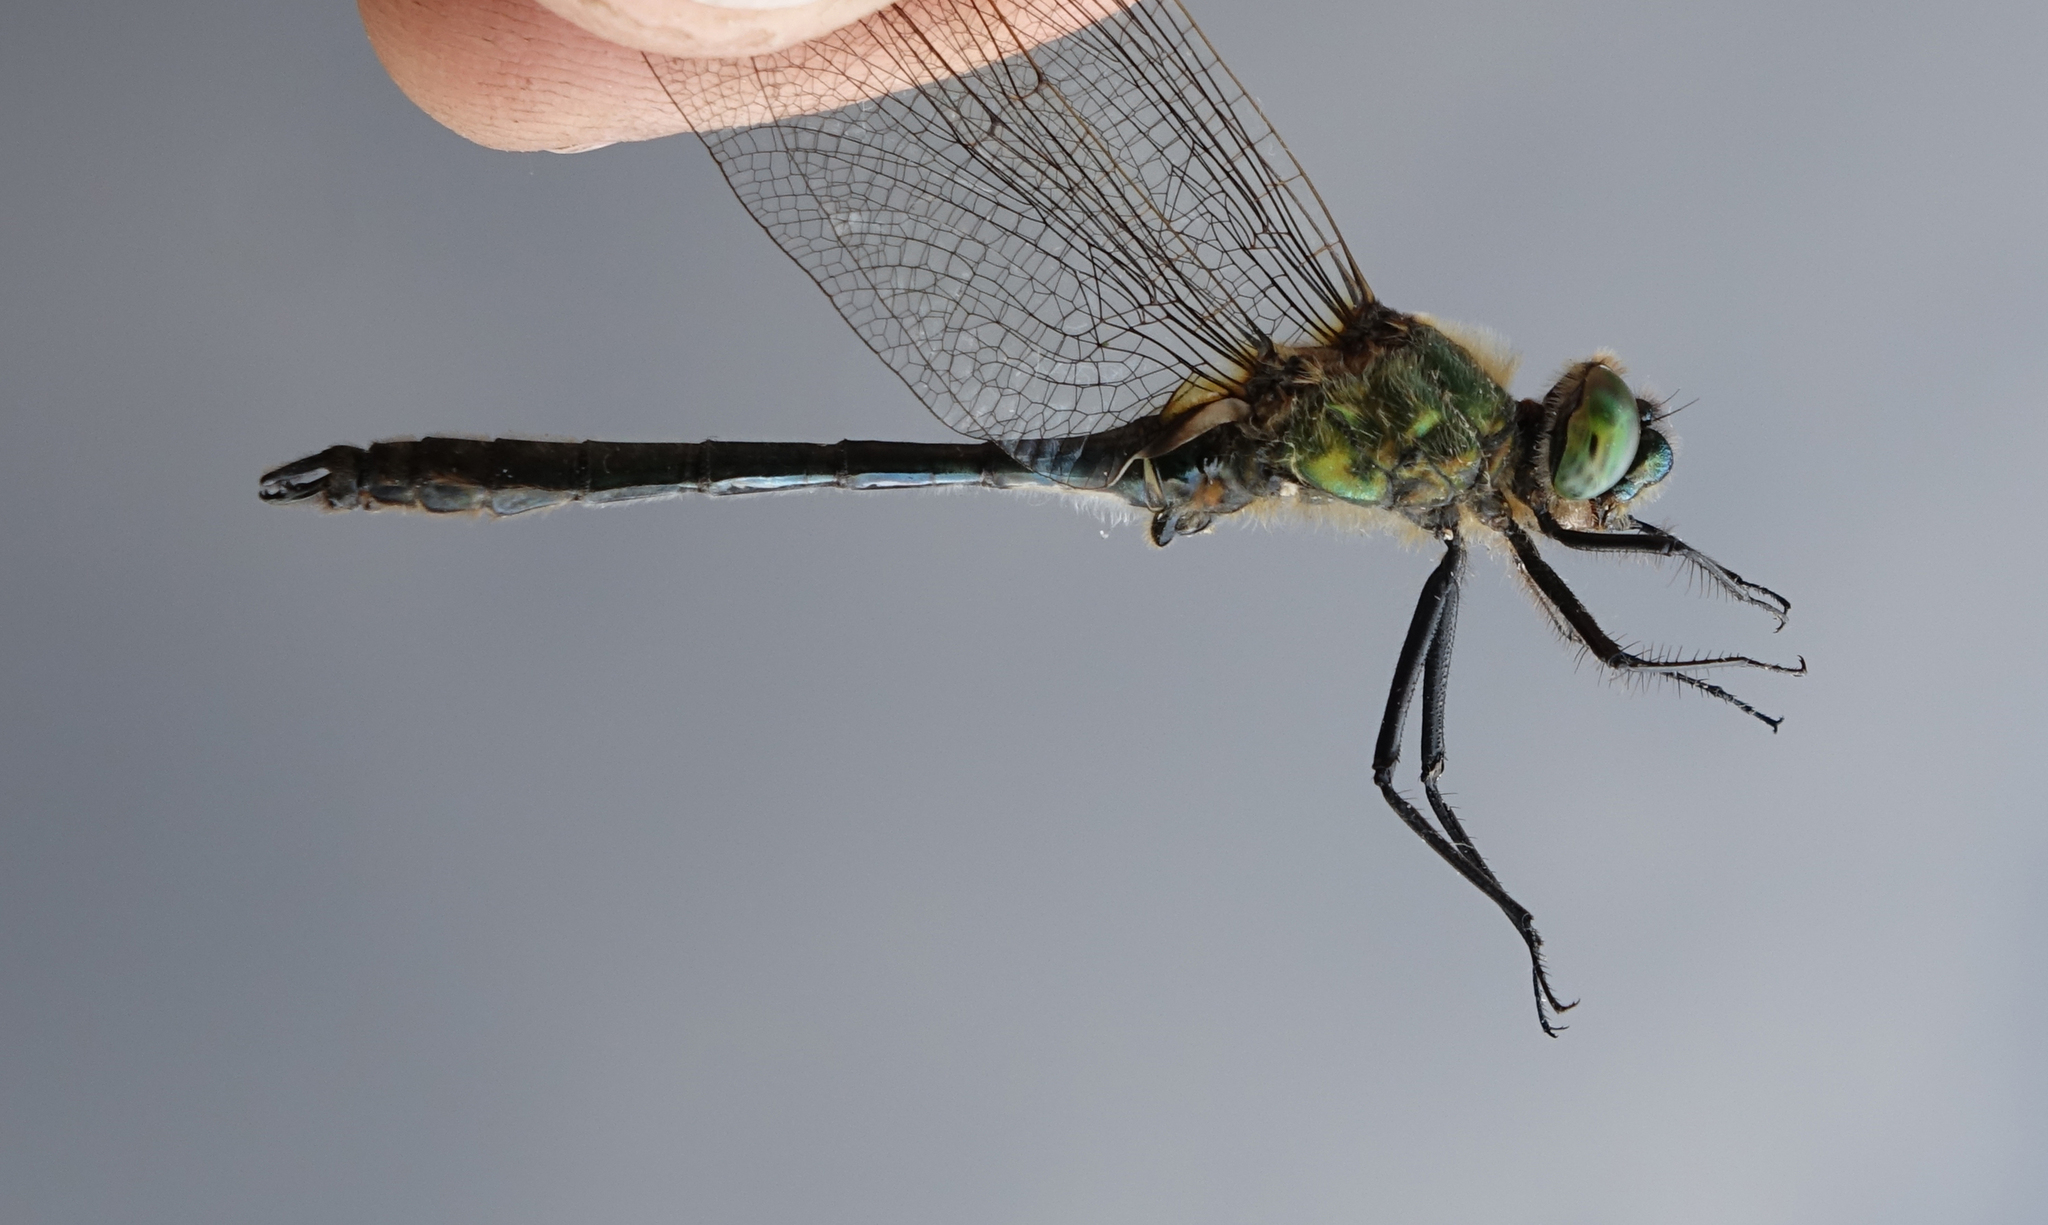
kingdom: Animalia
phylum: Arthropoda
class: Insecta
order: Odonata
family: Corduliidae
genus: Cordulia
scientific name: Cordulia aenea
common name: Downy emerald
